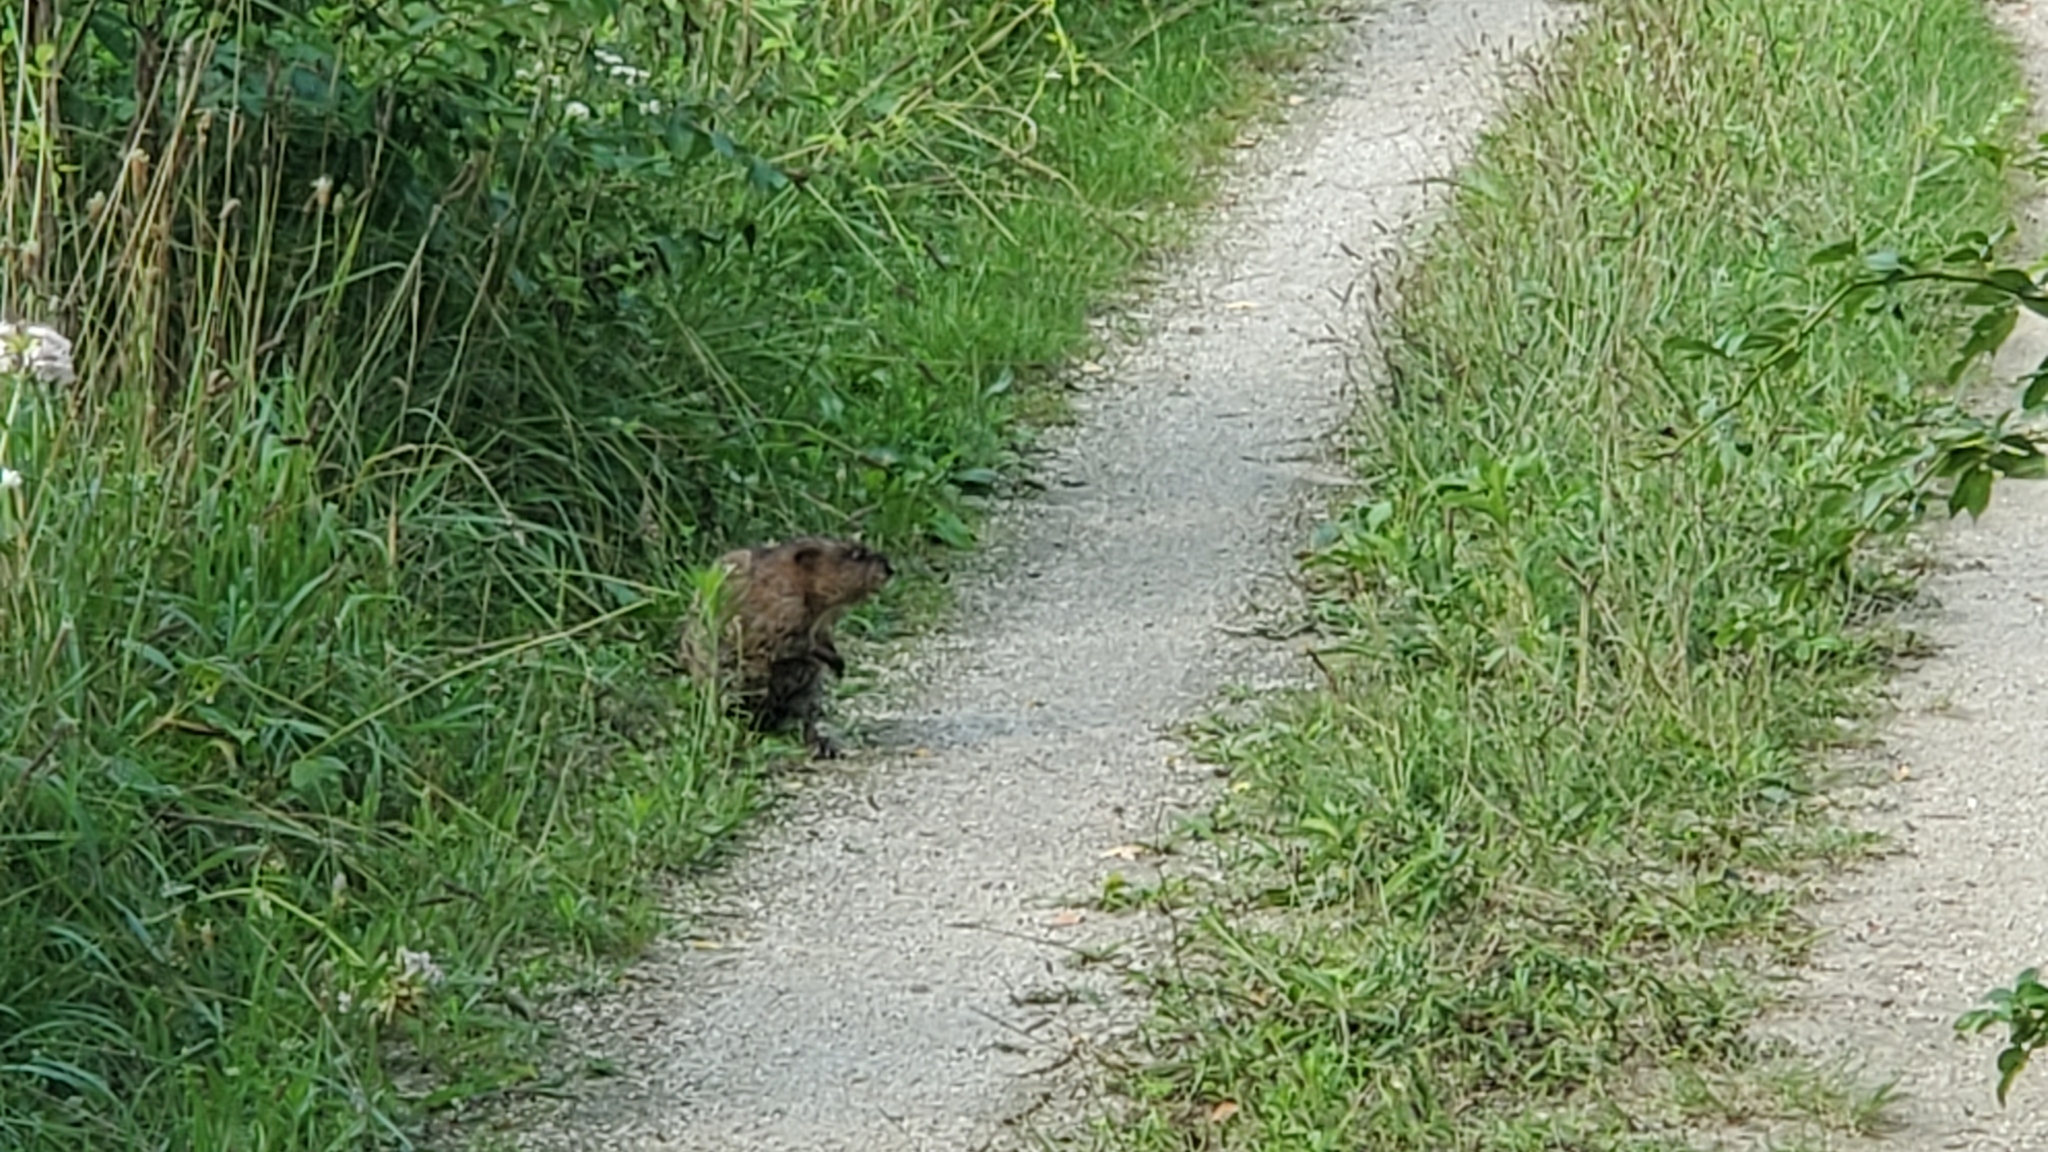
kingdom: Animalia
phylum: Chordata
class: Mammalia
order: Rodentia
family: Cricetidae
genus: Ondatra
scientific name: Ondatra zibethicus
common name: Muskrat
